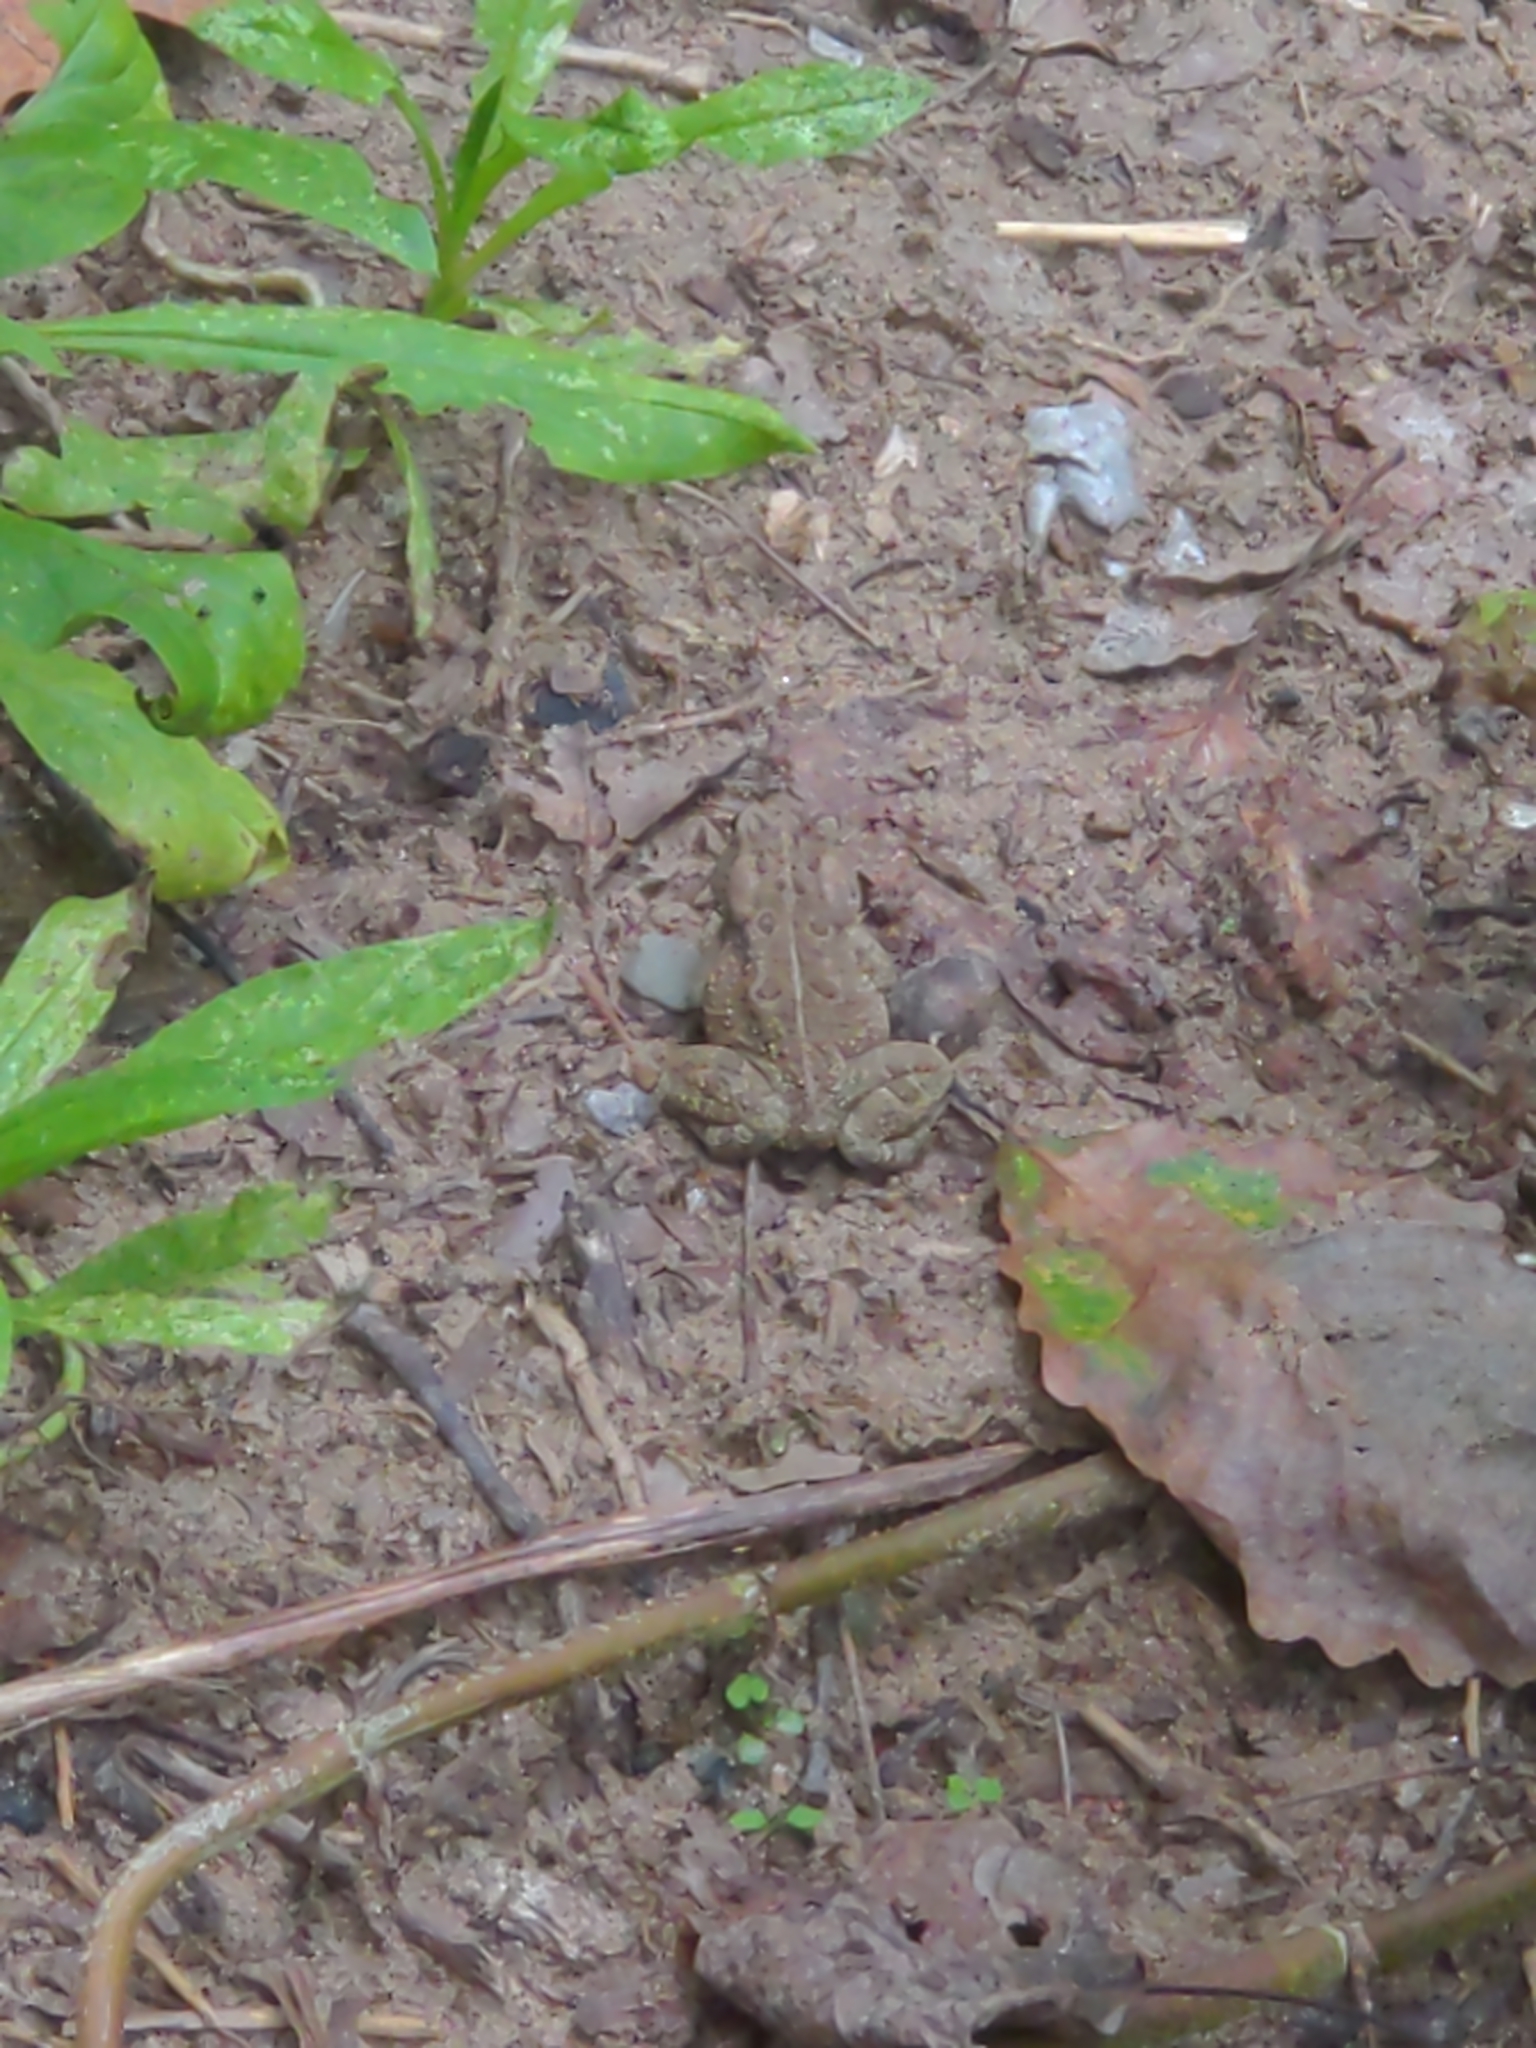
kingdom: Animalia
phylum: Chordata
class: Amphibia
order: Anura
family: Bufonidae
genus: Anaxyrus
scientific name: Anaxyrus fowleri
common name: Fowler's toad
